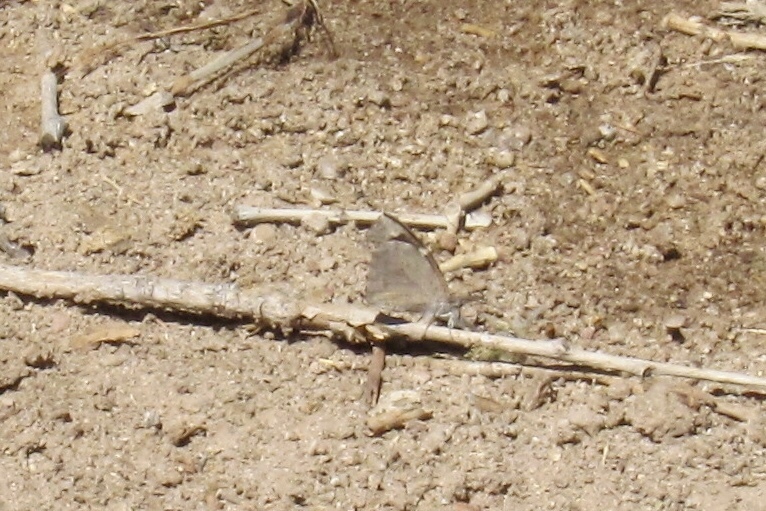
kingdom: Animalia
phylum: Arthropoda
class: Insecta
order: Lepidoptera
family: Nymphalidae
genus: Libytheana
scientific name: Libytheana carinenta
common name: American snout
